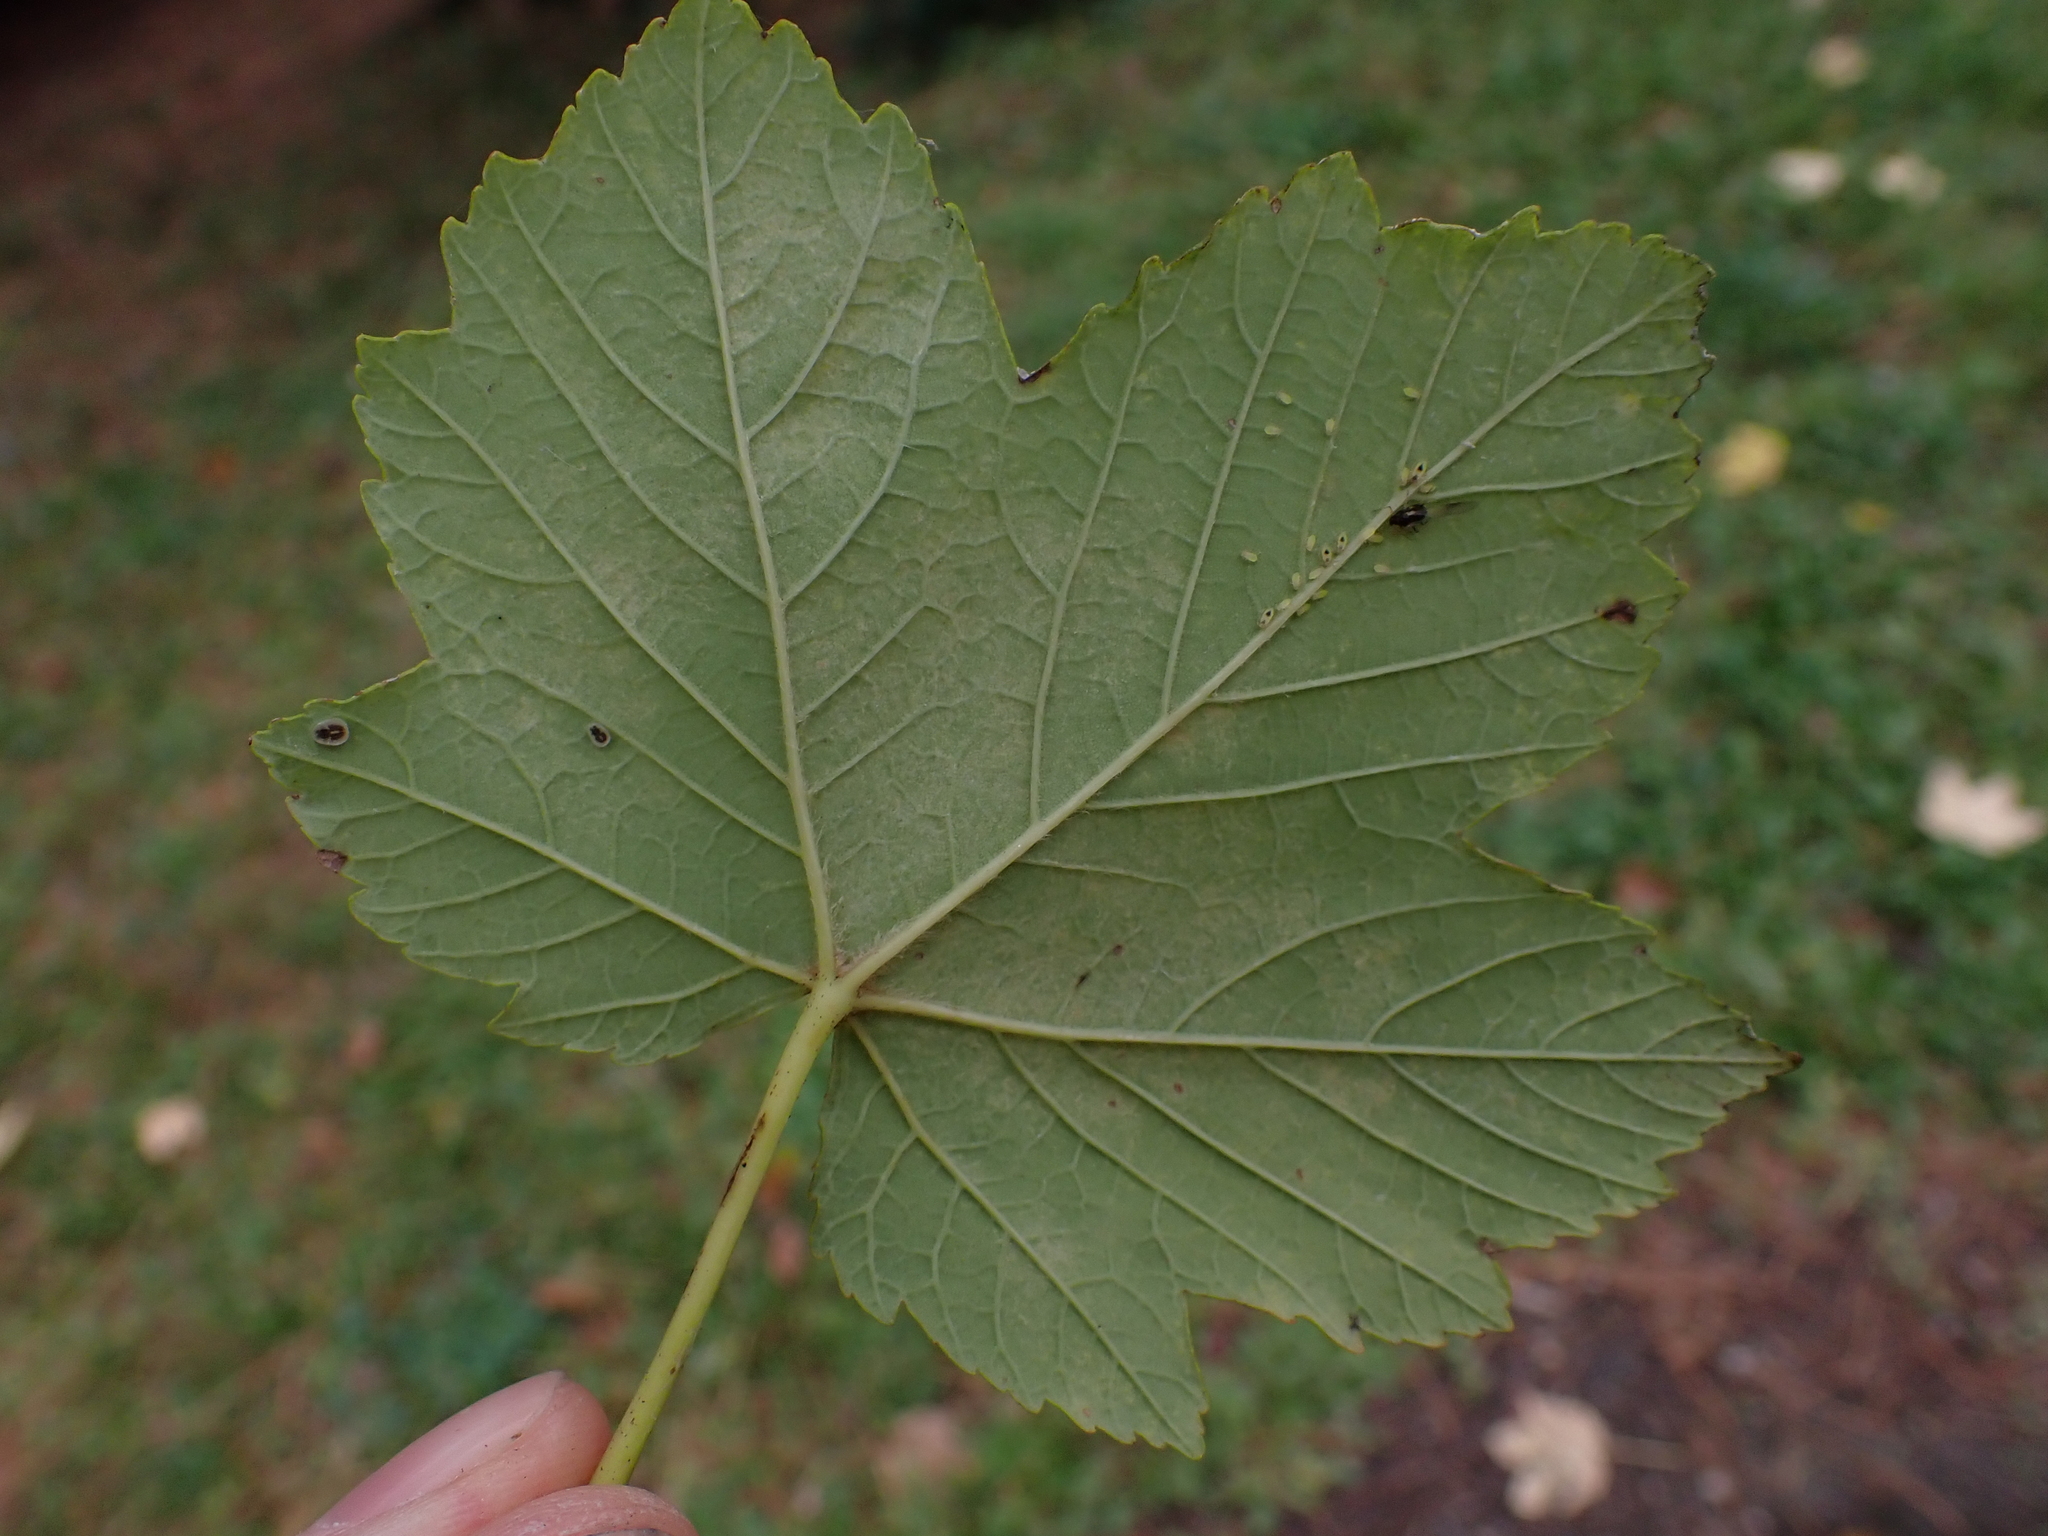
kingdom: Animalia
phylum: Arthropoda
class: Insecta
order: Hemiptera
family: Aleyrodidae
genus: Aleurochiton
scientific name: Aleurochiton pseudoplatani
